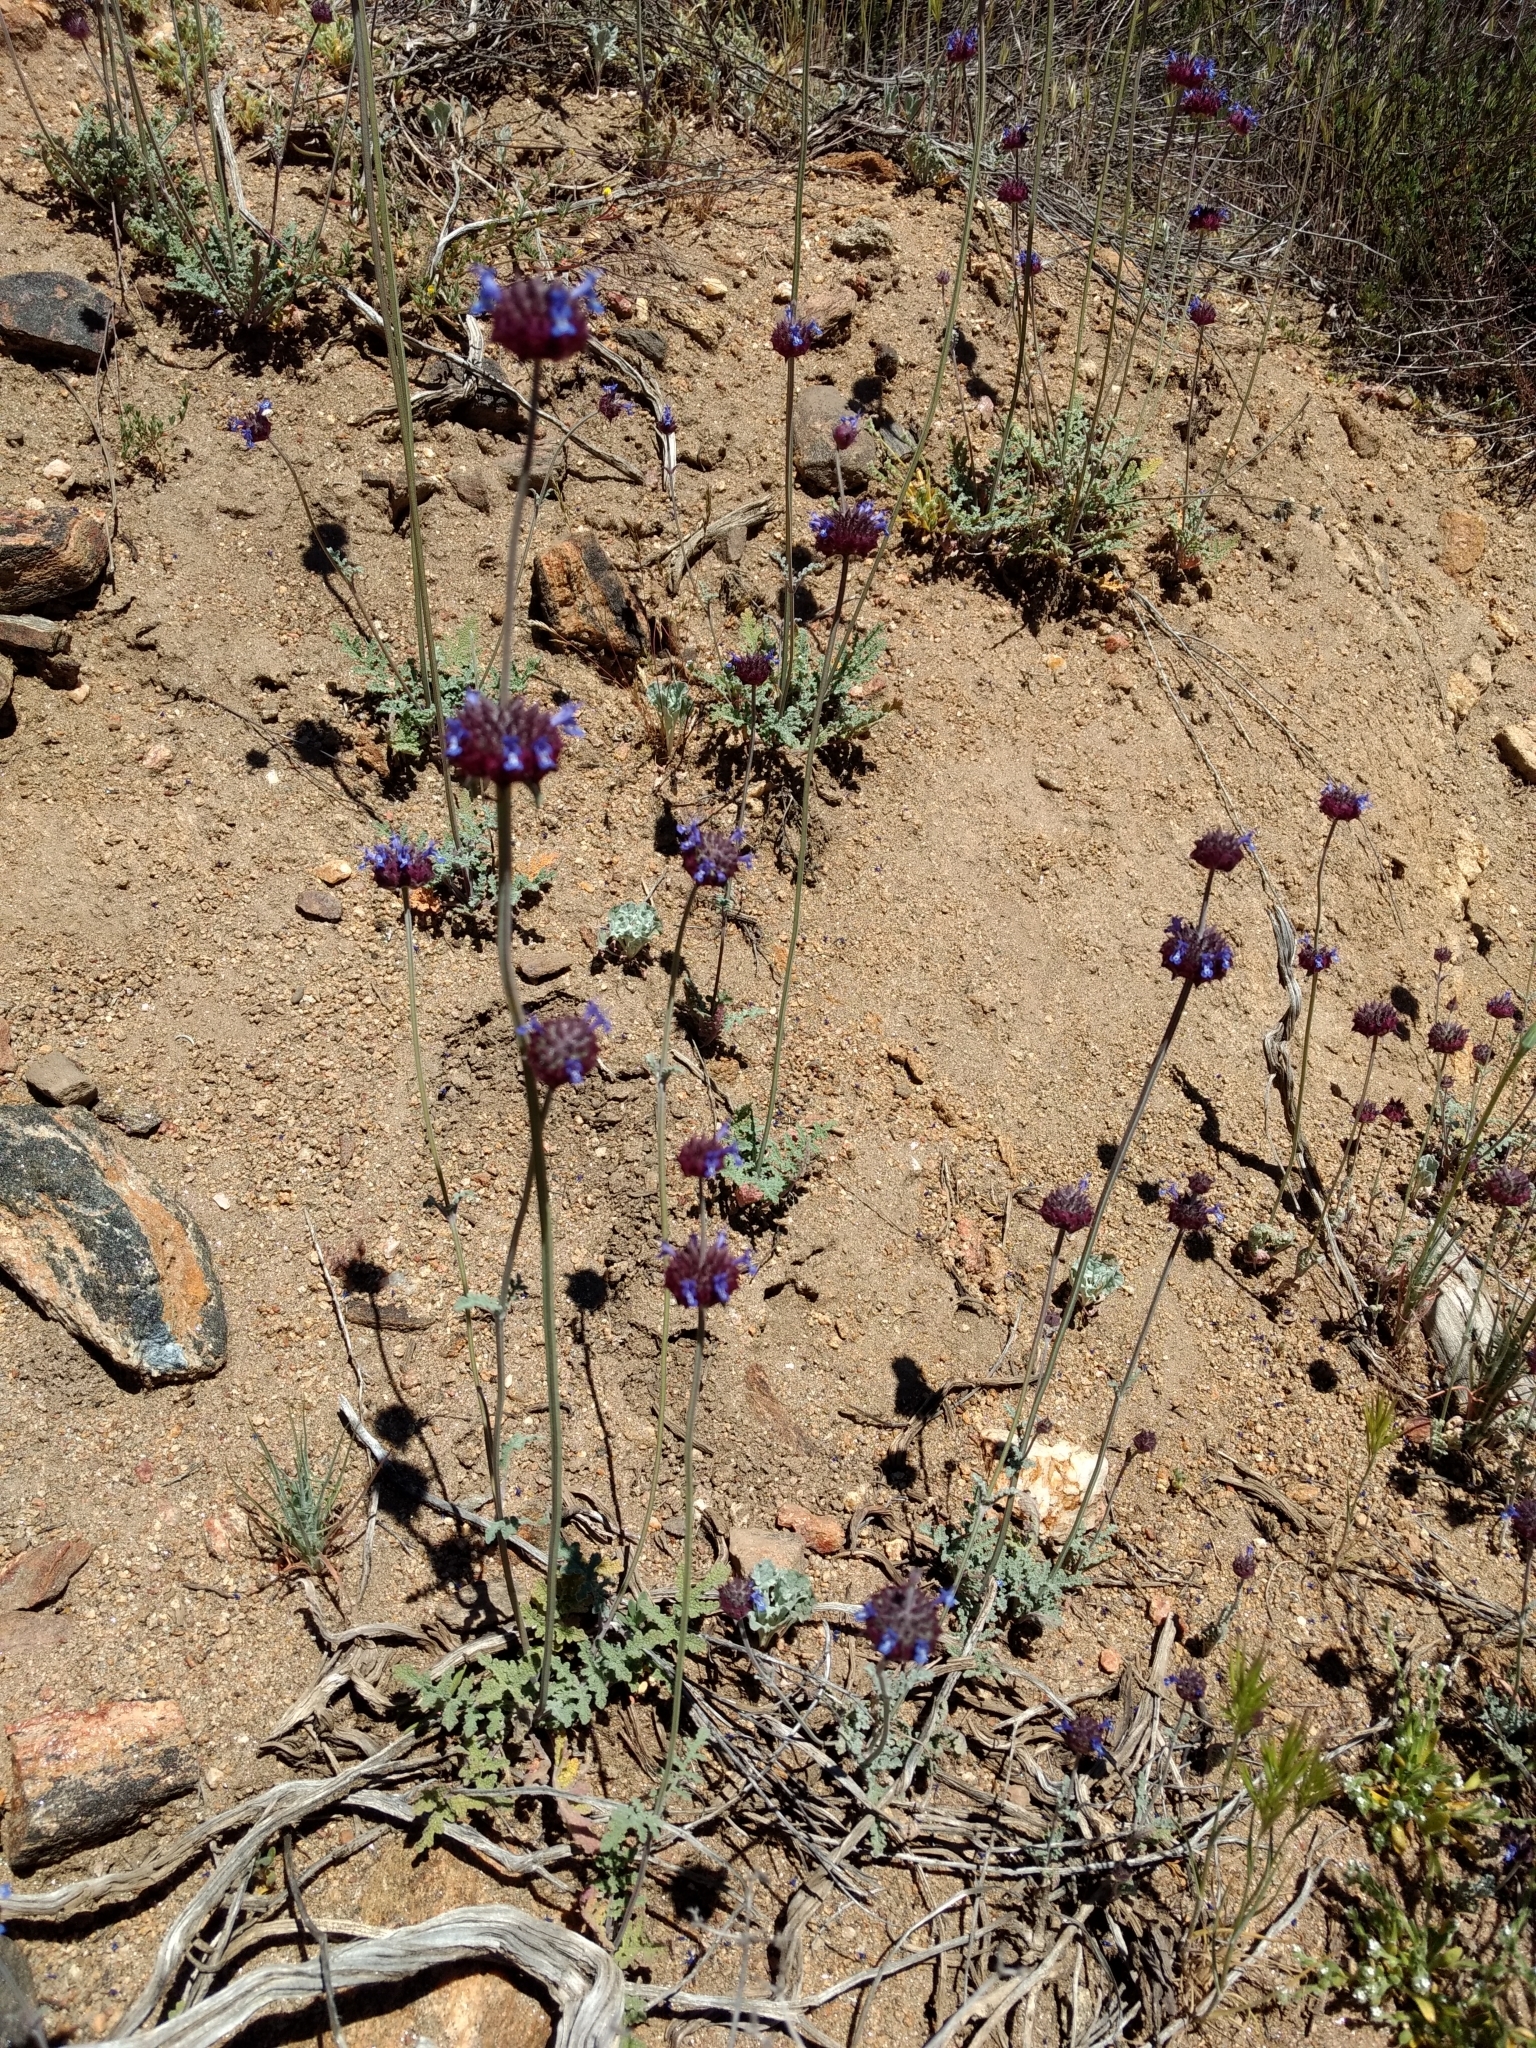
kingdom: Plantae
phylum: Tracheophyta
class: Magnoliopsida
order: Lamiales
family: Lamiaceae
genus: Salvia
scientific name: Salvia columbariae
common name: Chia
